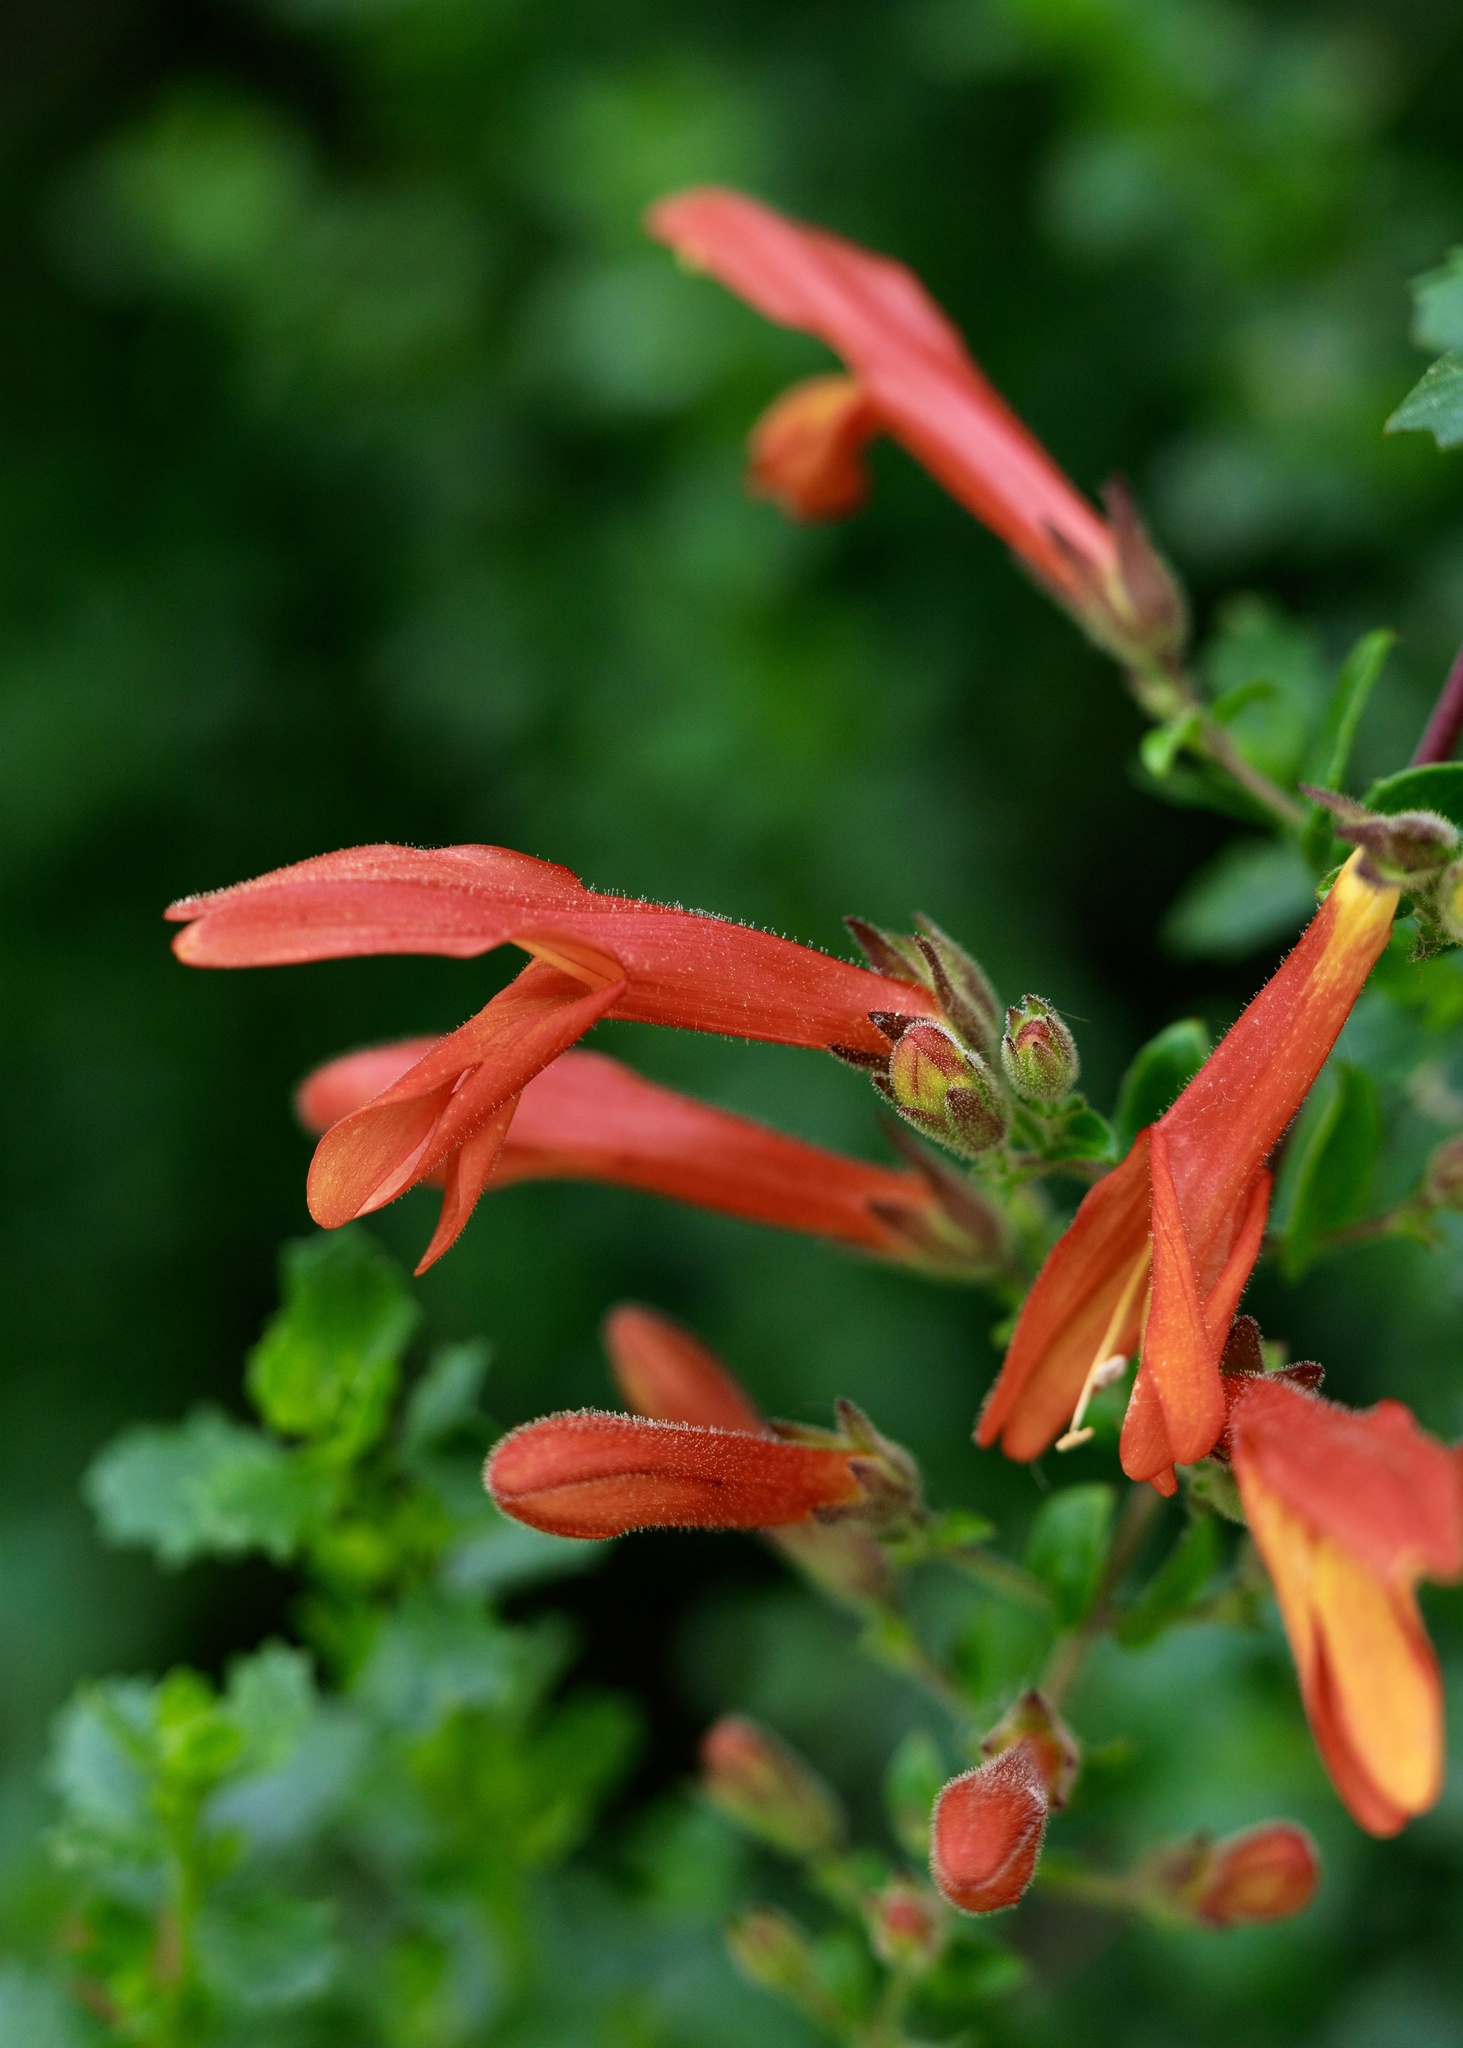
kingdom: Plantae
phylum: Tracheophyta
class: Magnoliopsida
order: Lamiales
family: Plantaginaceae
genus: Keckiella
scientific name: Keckiella cordifolia
